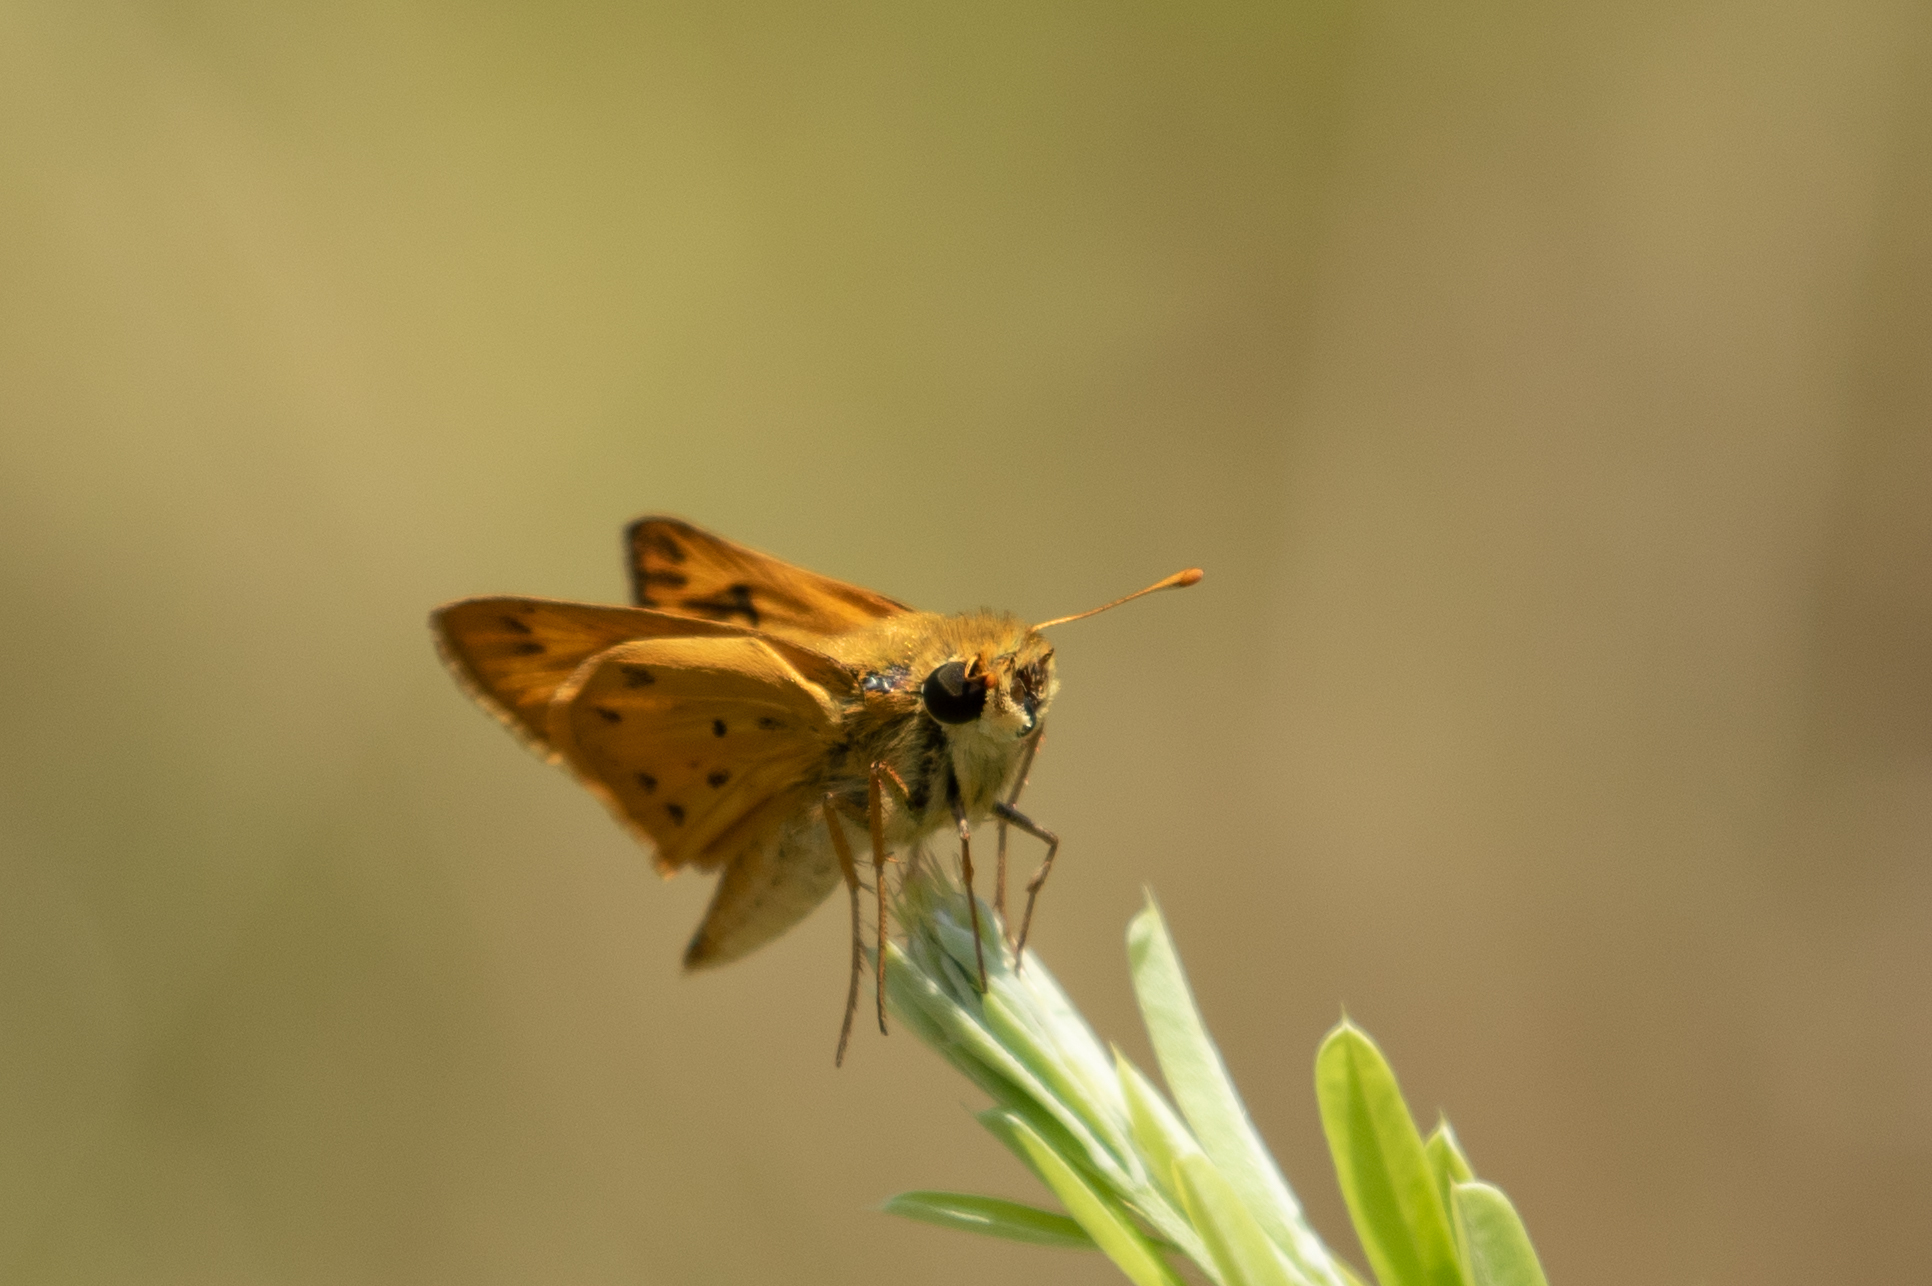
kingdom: Animalia
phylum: Arthropoda
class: Insecta
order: Lepidoptera
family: Hesperiidae
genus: Hylephila
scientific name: Hylephila phyleus
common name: Fiery skipper
